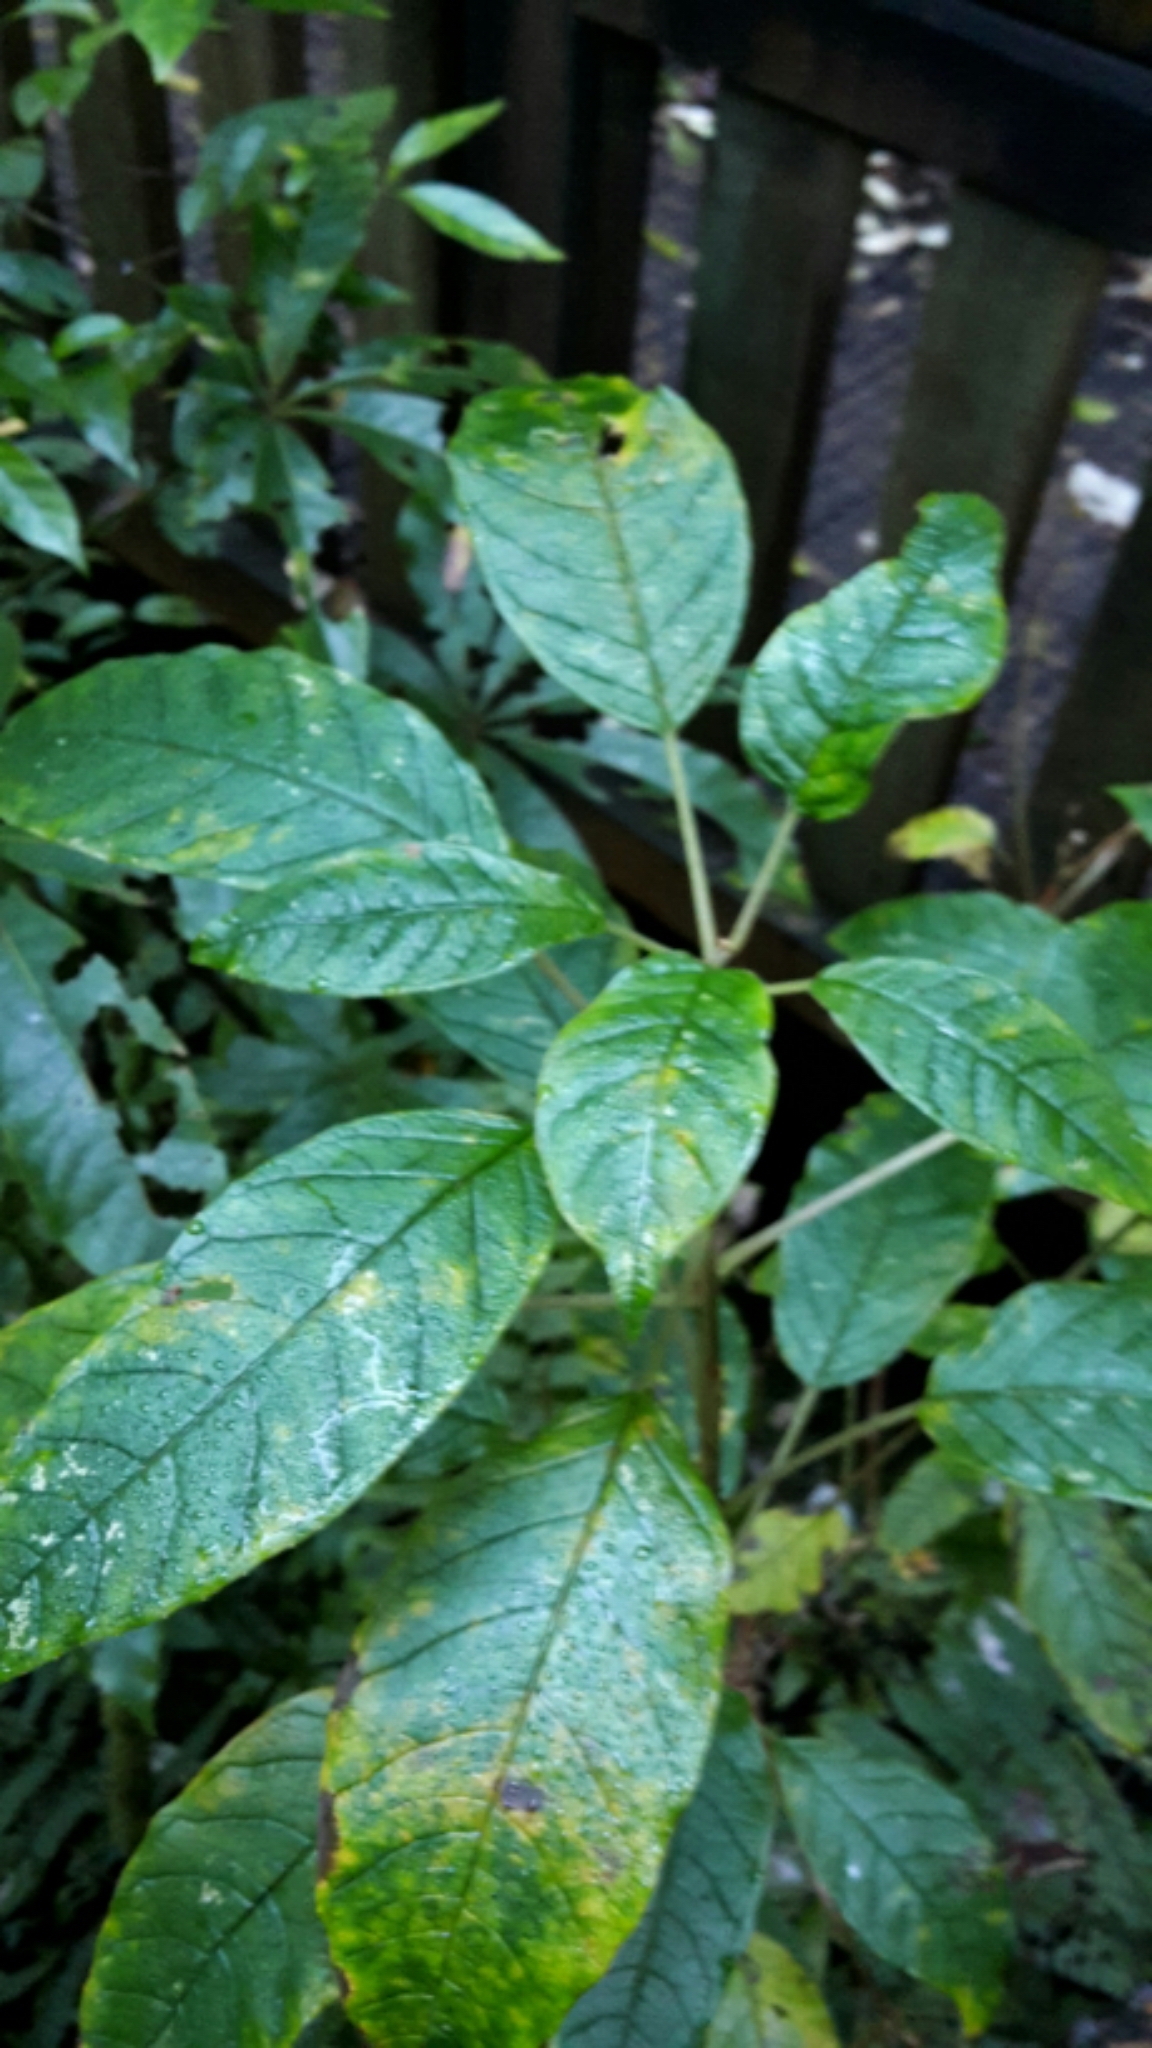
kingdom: Plantae
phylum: Tracheophyta
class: Magnoliopsida
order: Myrtales
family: Onagraceae
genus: Fuchsia
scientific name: Fuchsia excorticata
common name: Tree fuchsia
